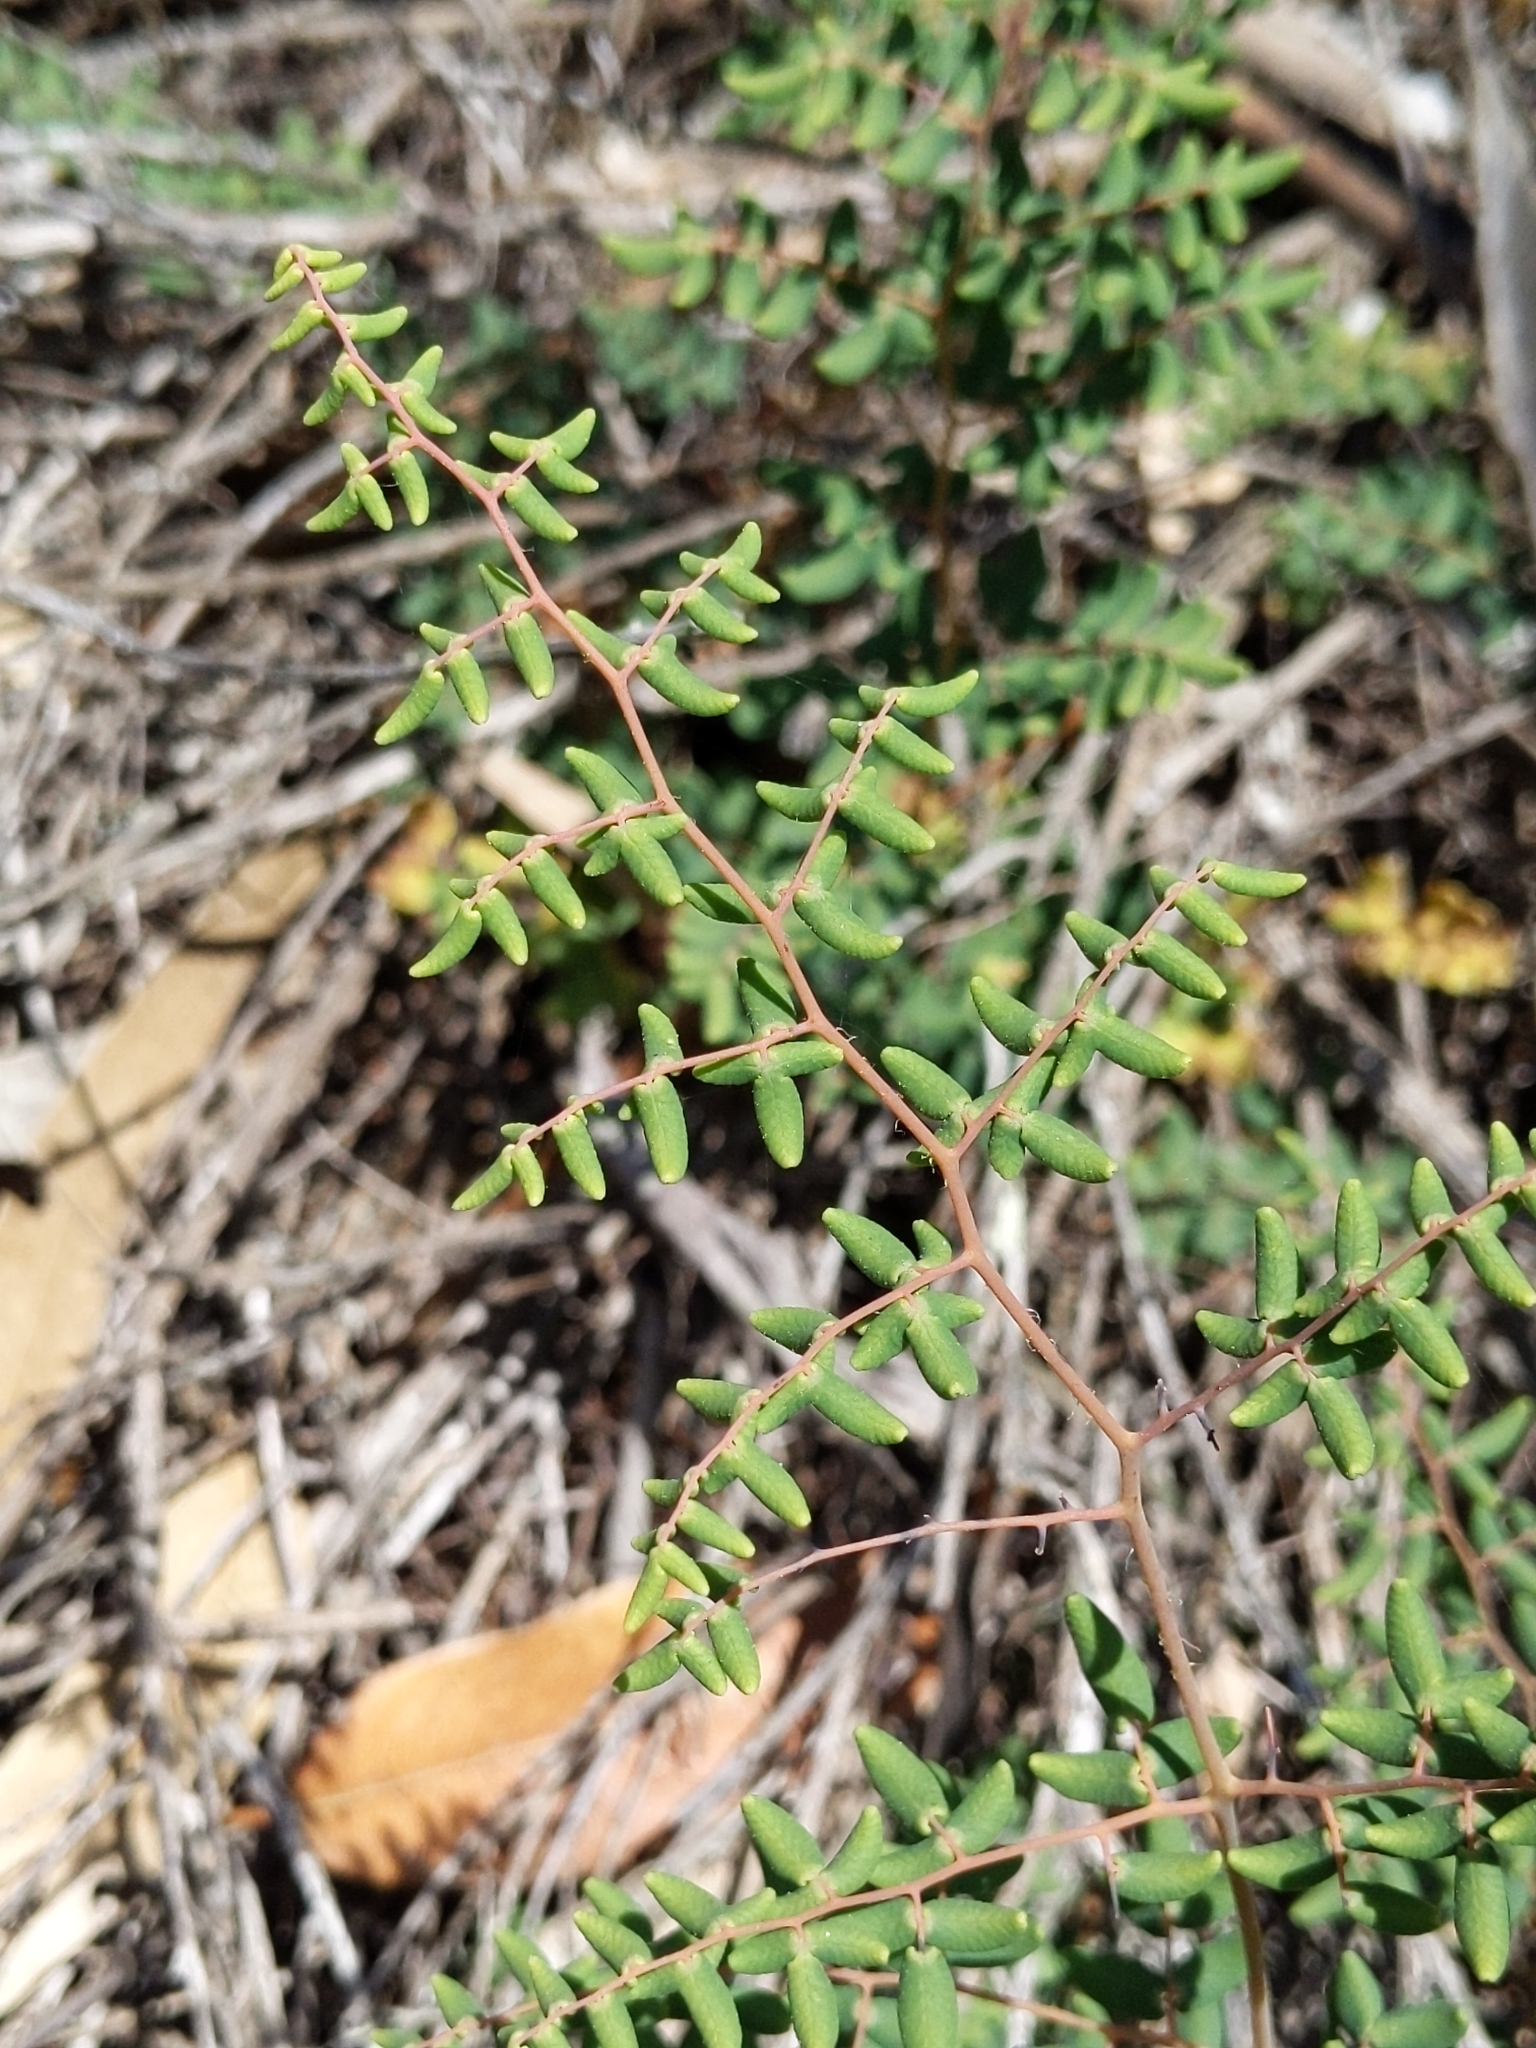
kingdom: Plantae
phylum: Tracheophyta
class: Polypodiopsida
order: Polypodiales
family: Pteridaceae
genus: Pellaea
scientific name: Pellaea andromedifolia
